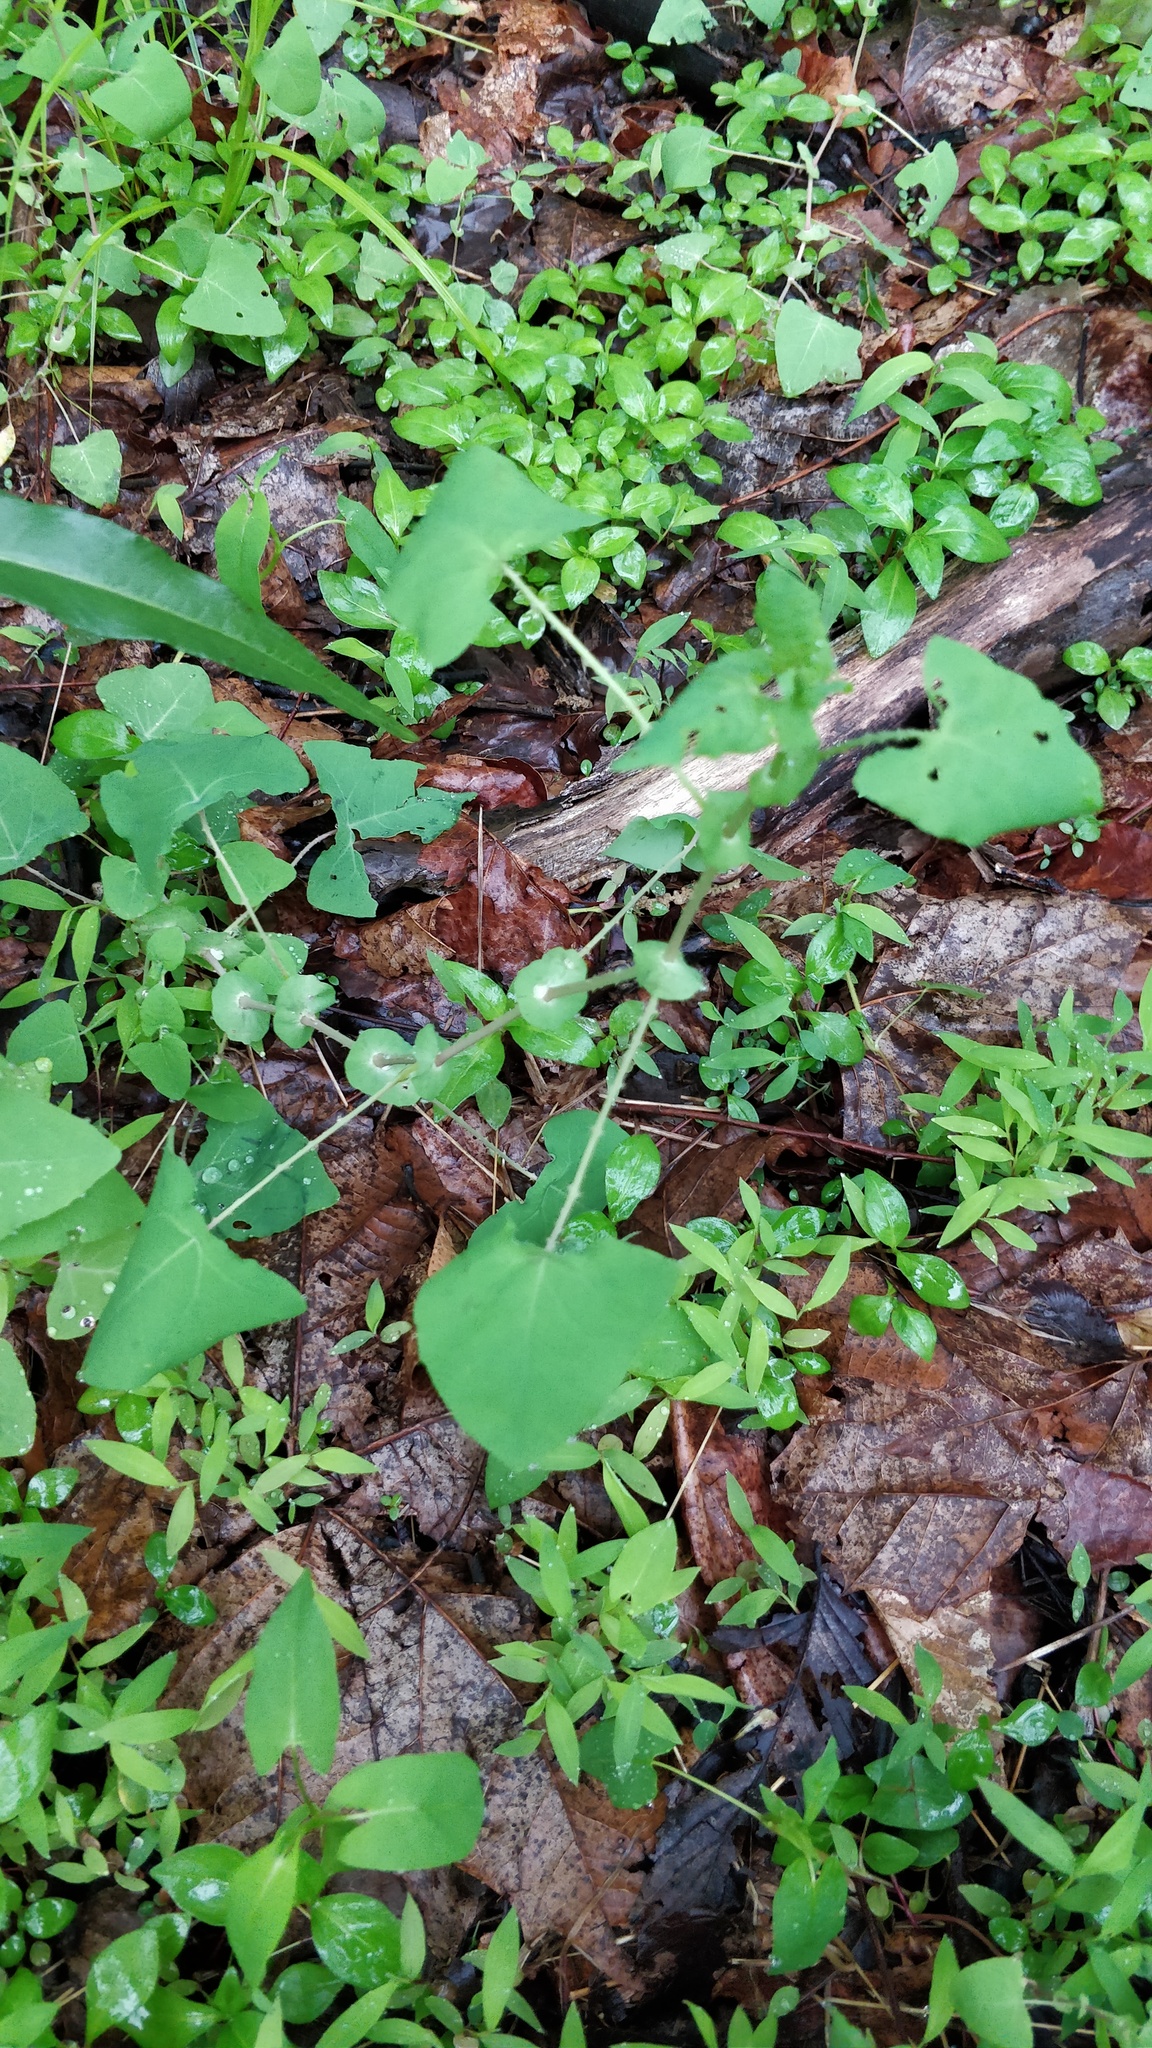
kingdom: Plantae
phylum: Tracheophyta
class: Magnoliopsida
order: Caryophyllales
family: Polygonaceae
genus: Persicaria
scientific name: Persicaria perfoliata
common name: Asiatic tearthumb
